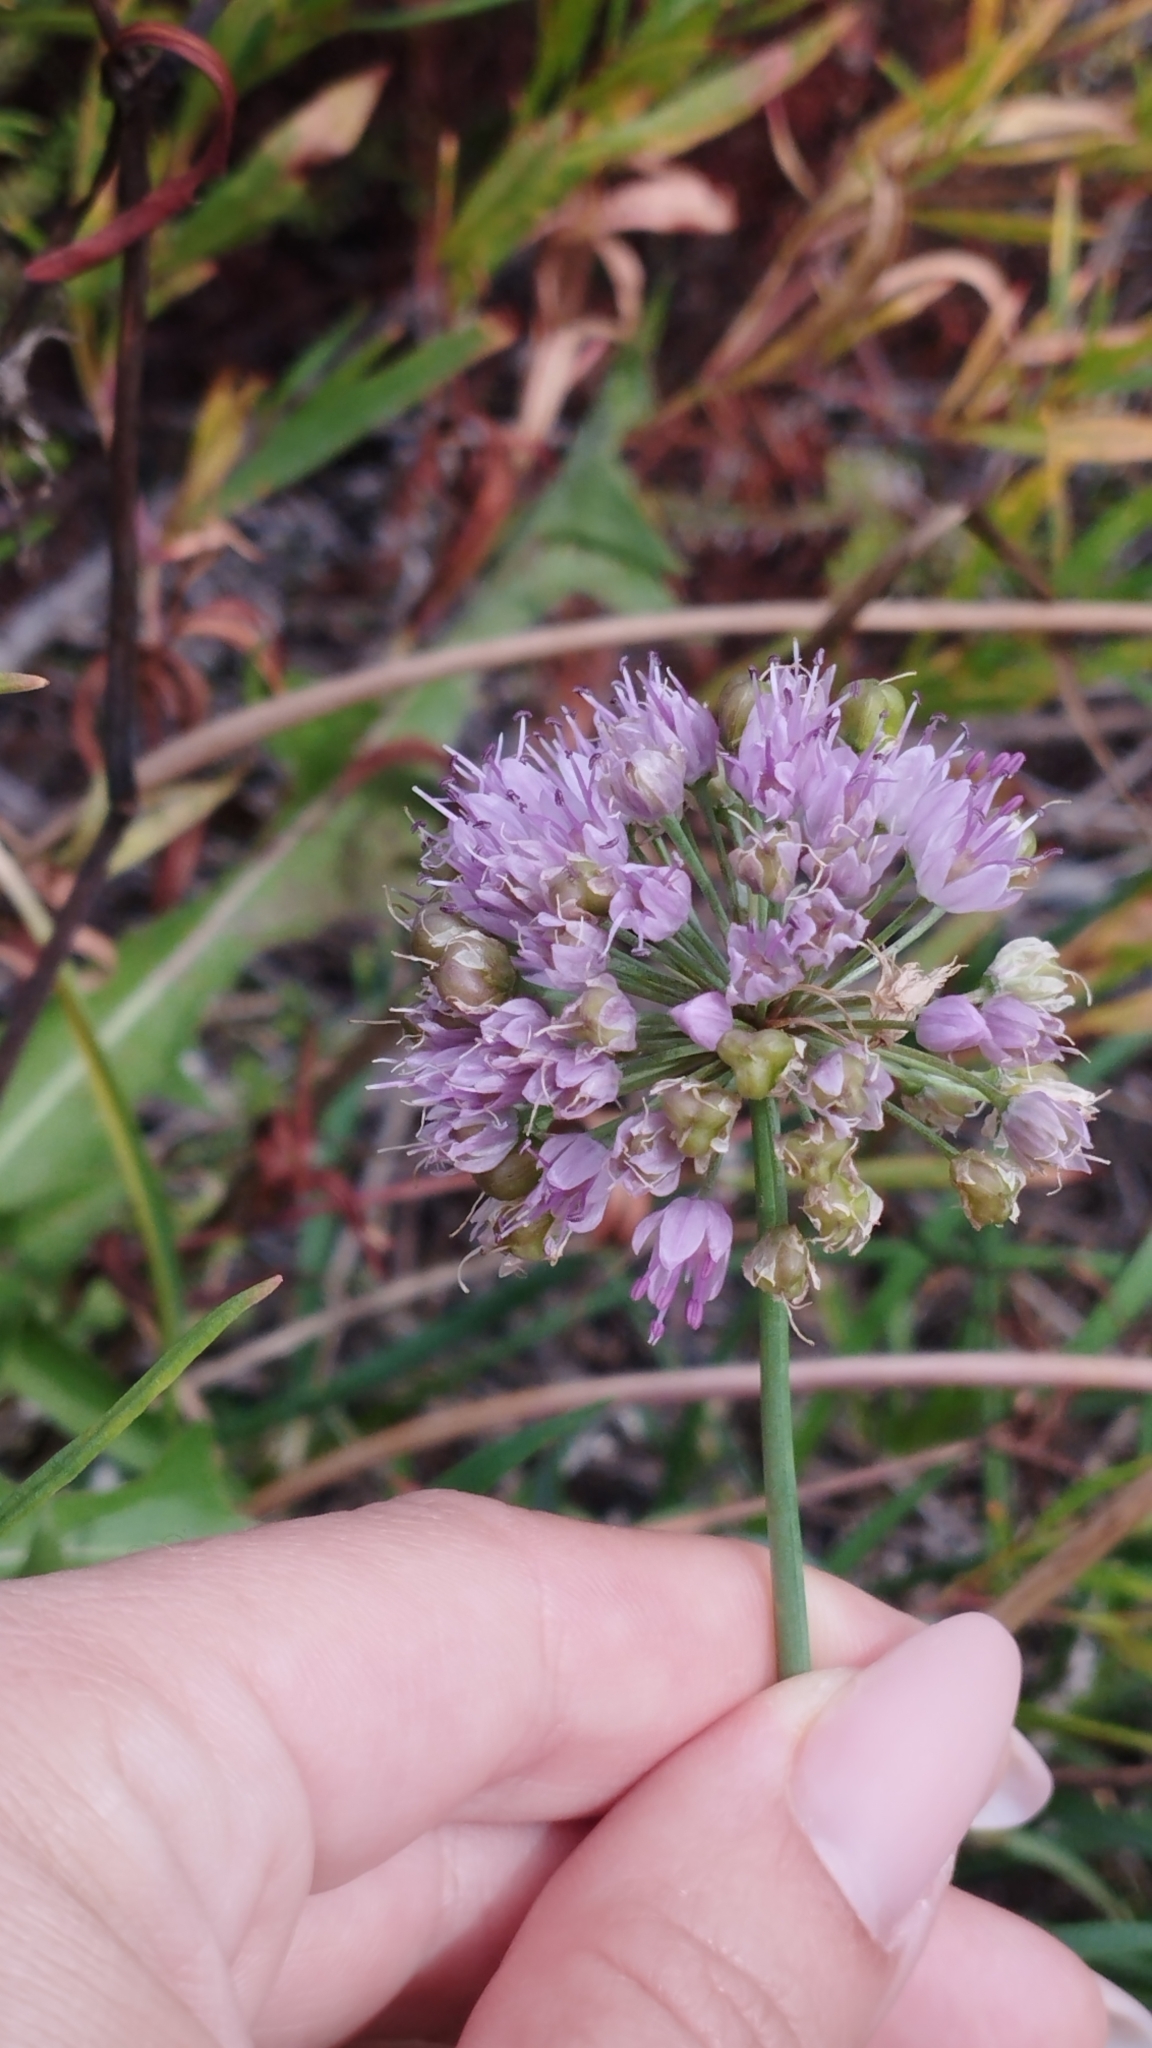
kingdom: Plantae
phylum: Tracheophyta
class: Liliopsida
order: Asparagales
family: Amaryllidaceae
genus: Allium
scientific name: Allium senescens
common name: German garlic
